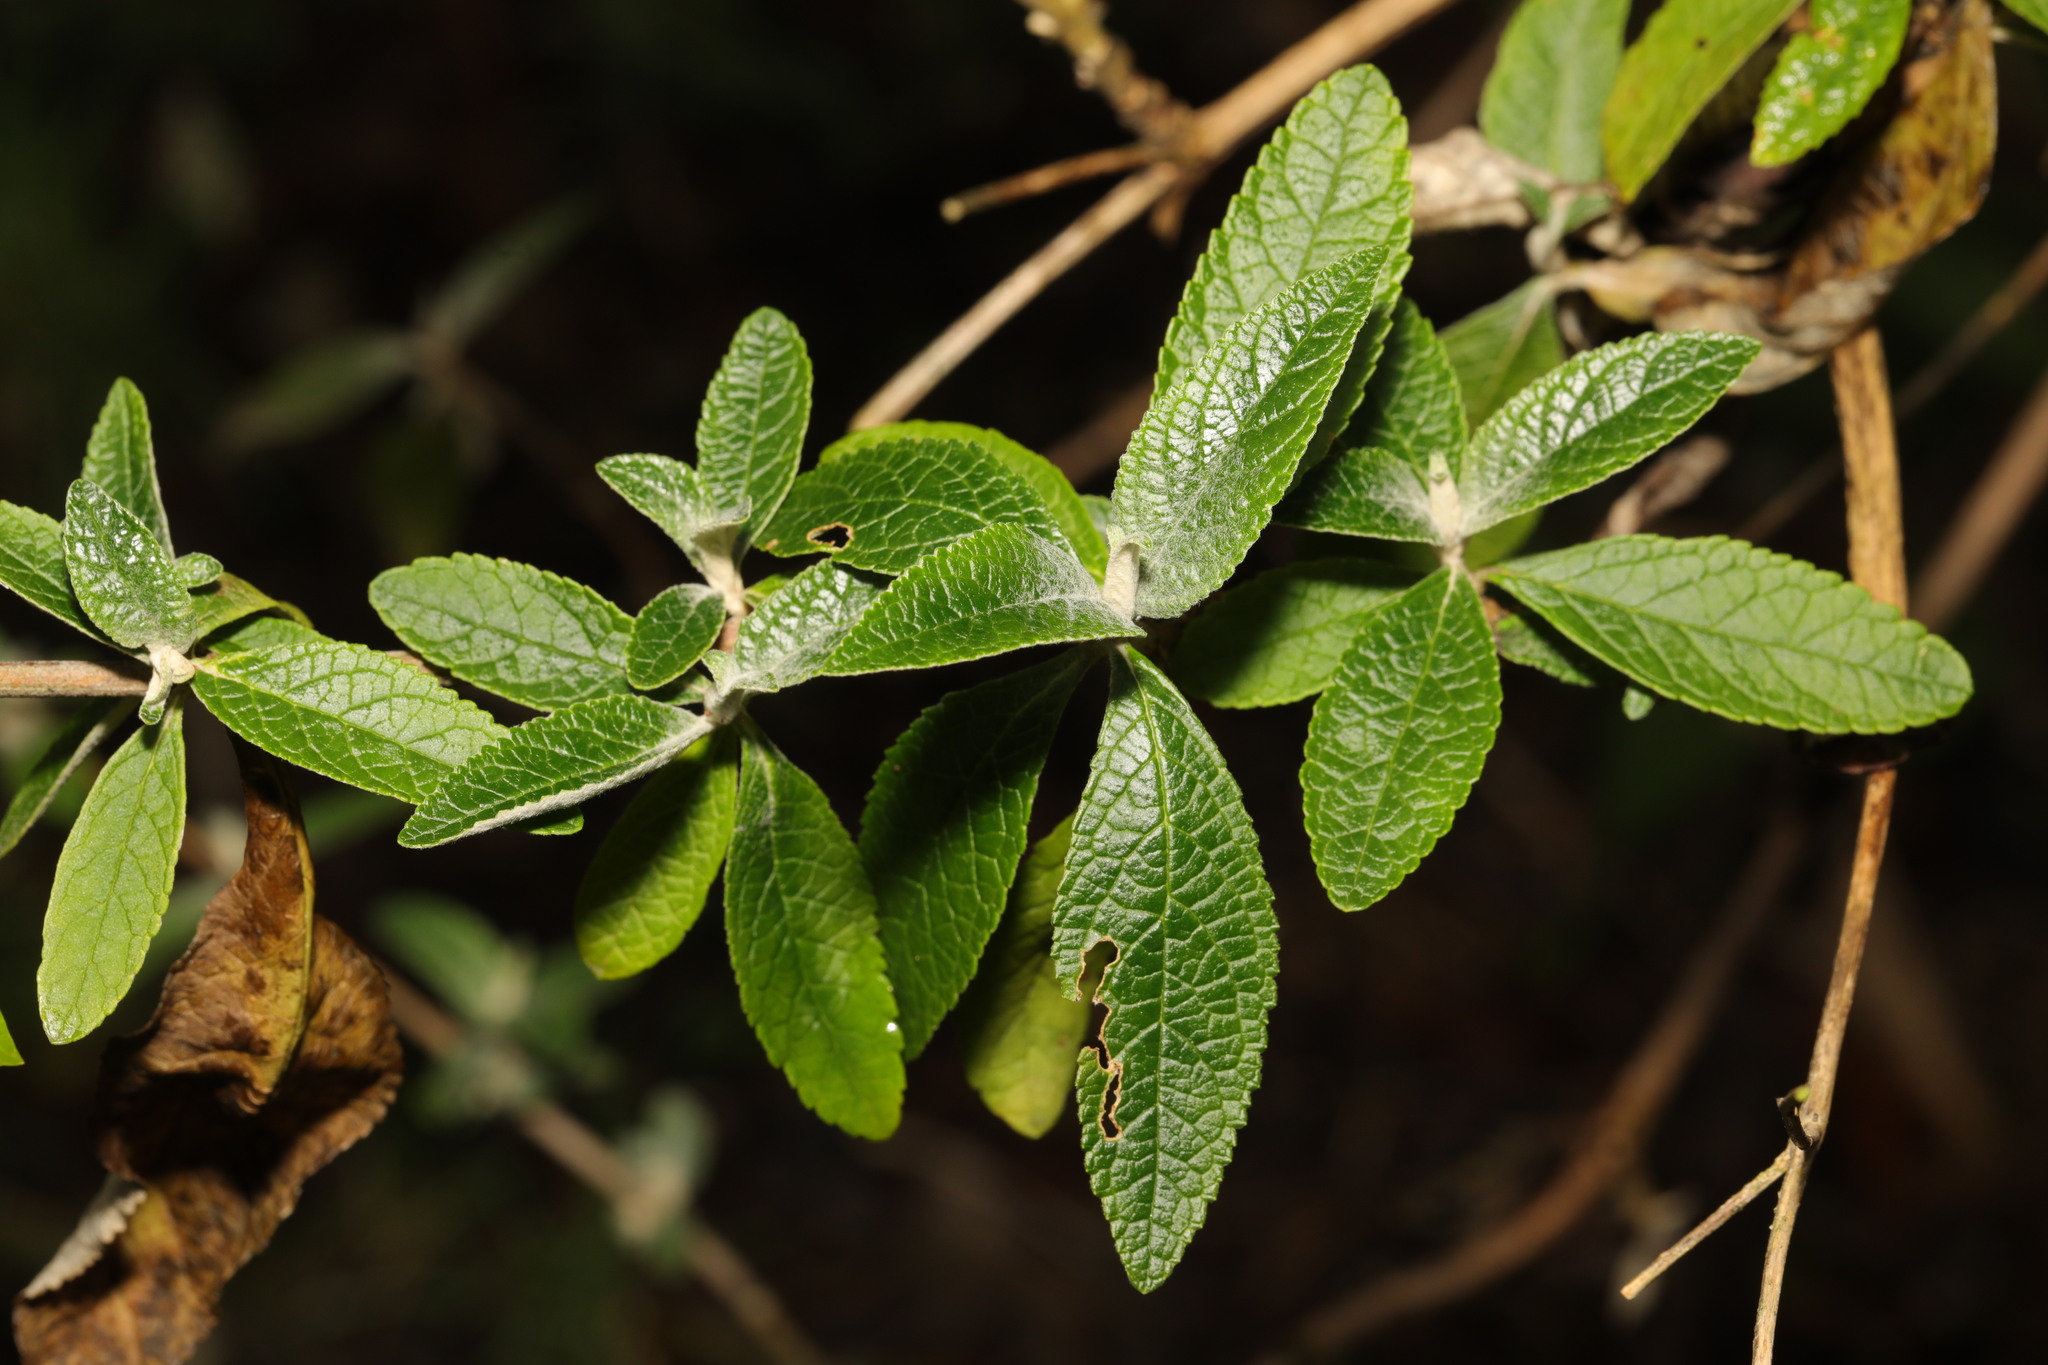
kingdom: Plantae
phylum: Tracheophyta
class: Magnoliopsida
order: Lamiales
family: Scrophulariaceae
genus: Buddleja
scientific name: Buddleja davidii
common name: Butterfly-bush
